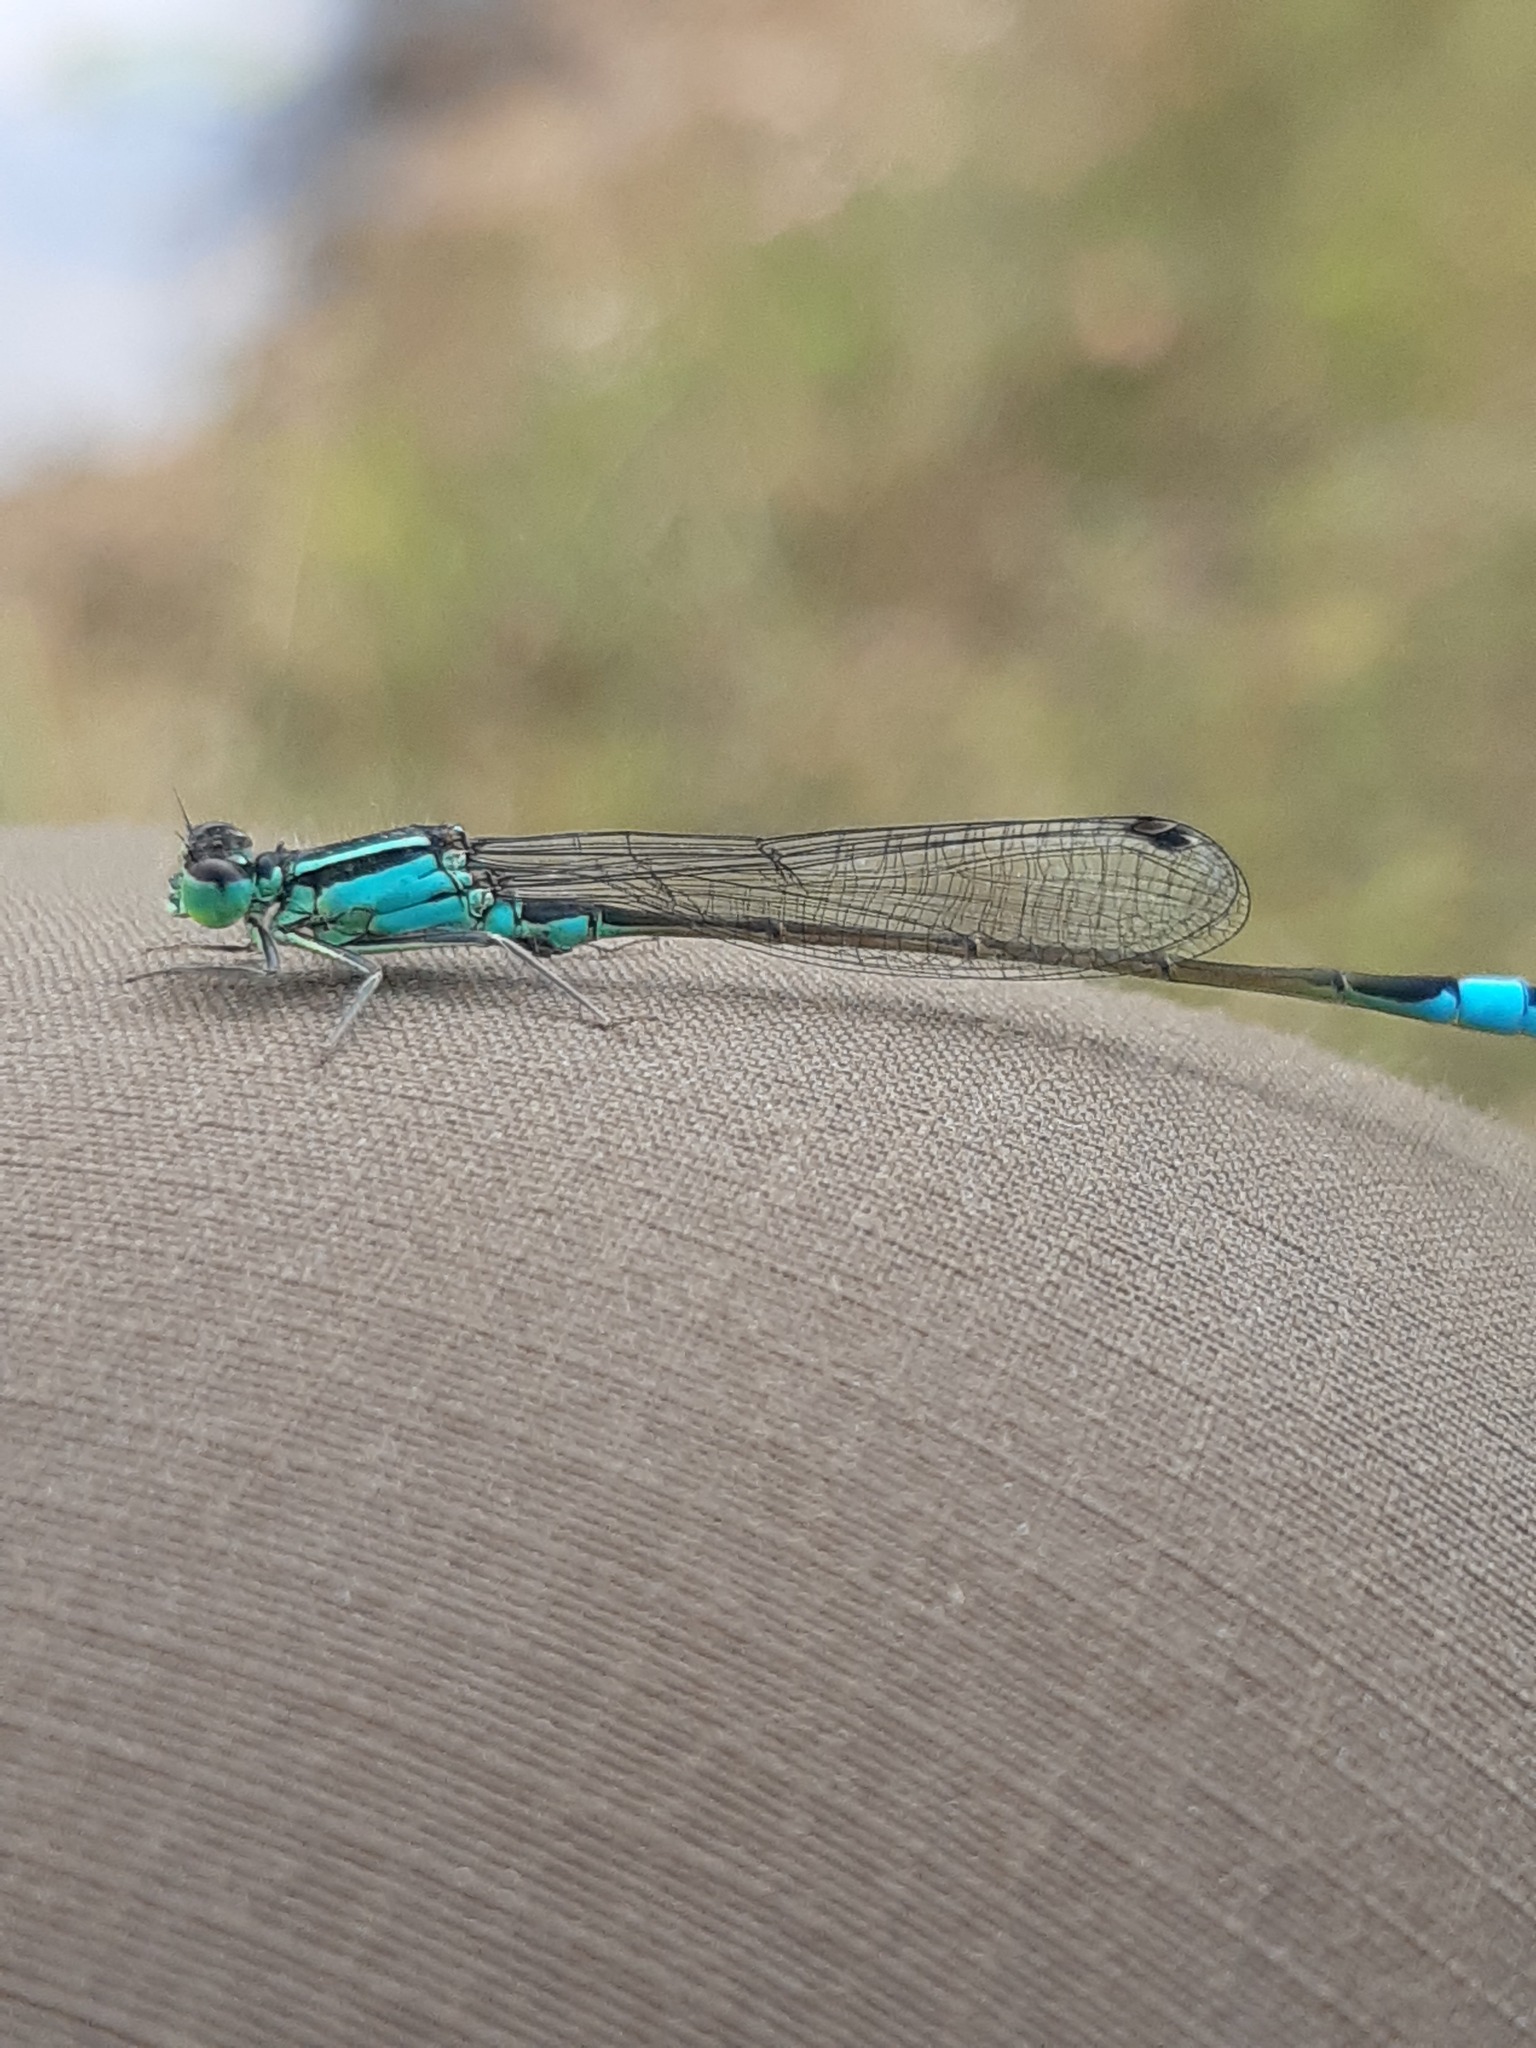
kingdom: Animalia
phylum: Arthropoda
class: Insecta
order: Odonata
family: Coenagrionidae
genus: Ischnura
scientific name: Ischnura elegans
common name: Blue-tailed damselfly
